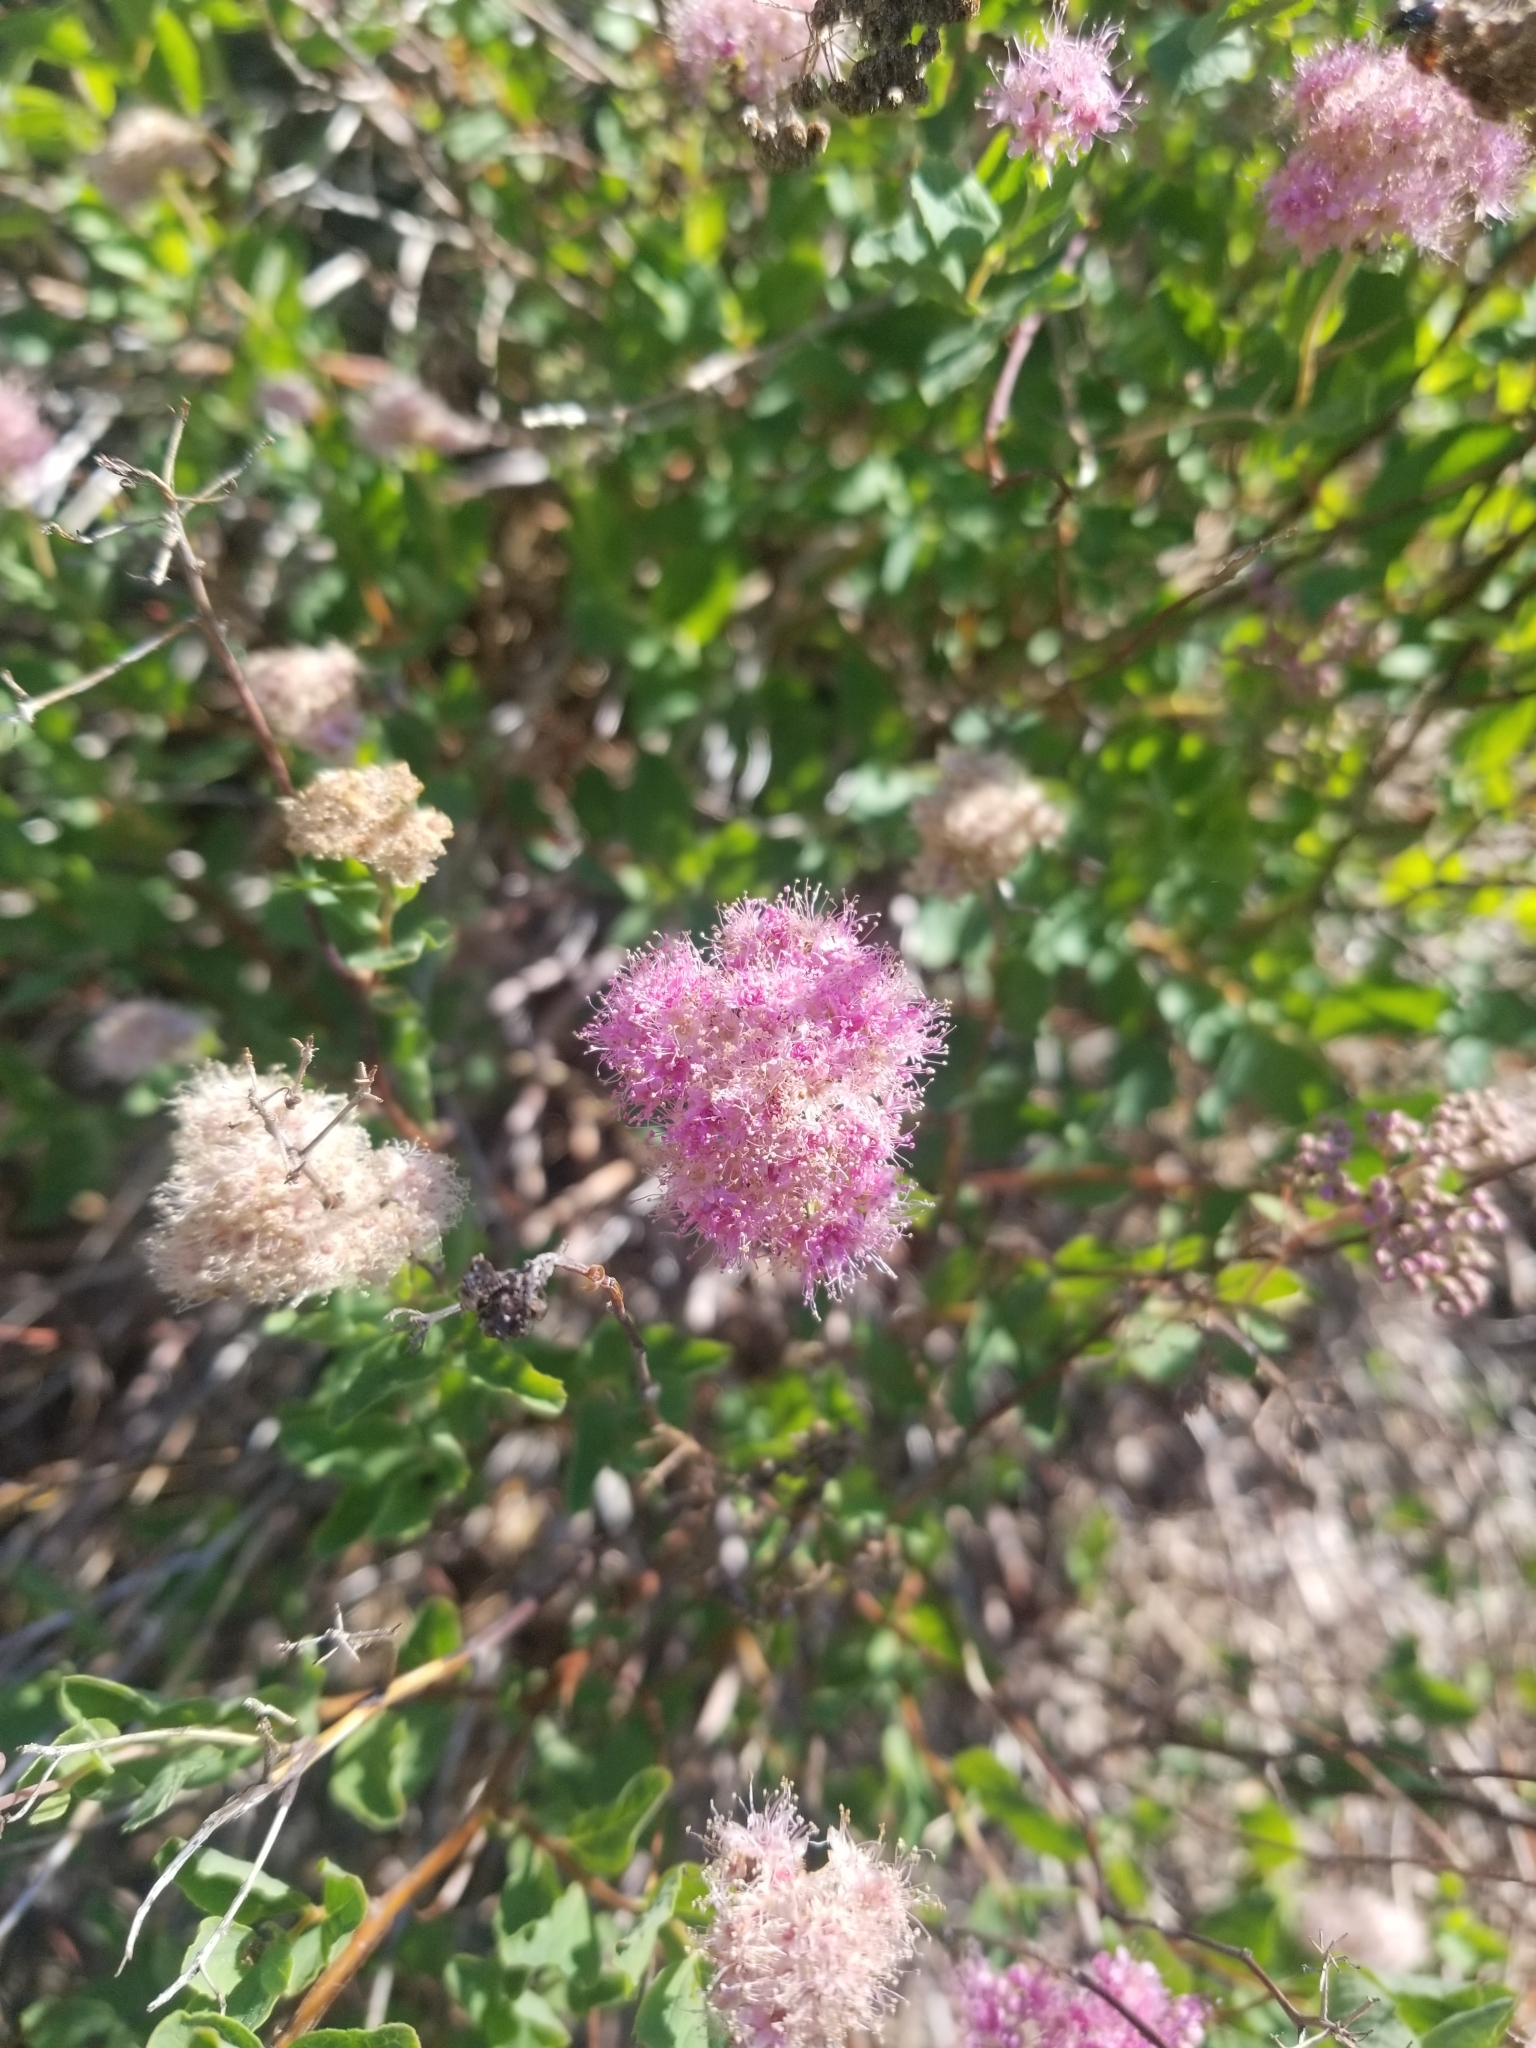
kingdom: Plantae
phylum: Tracheophyta
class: Magnoliopsida
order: Rosales
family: Rosaceae
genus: Spiraea
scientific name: Spiraea splendens
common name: Subalpine meadowsweet
